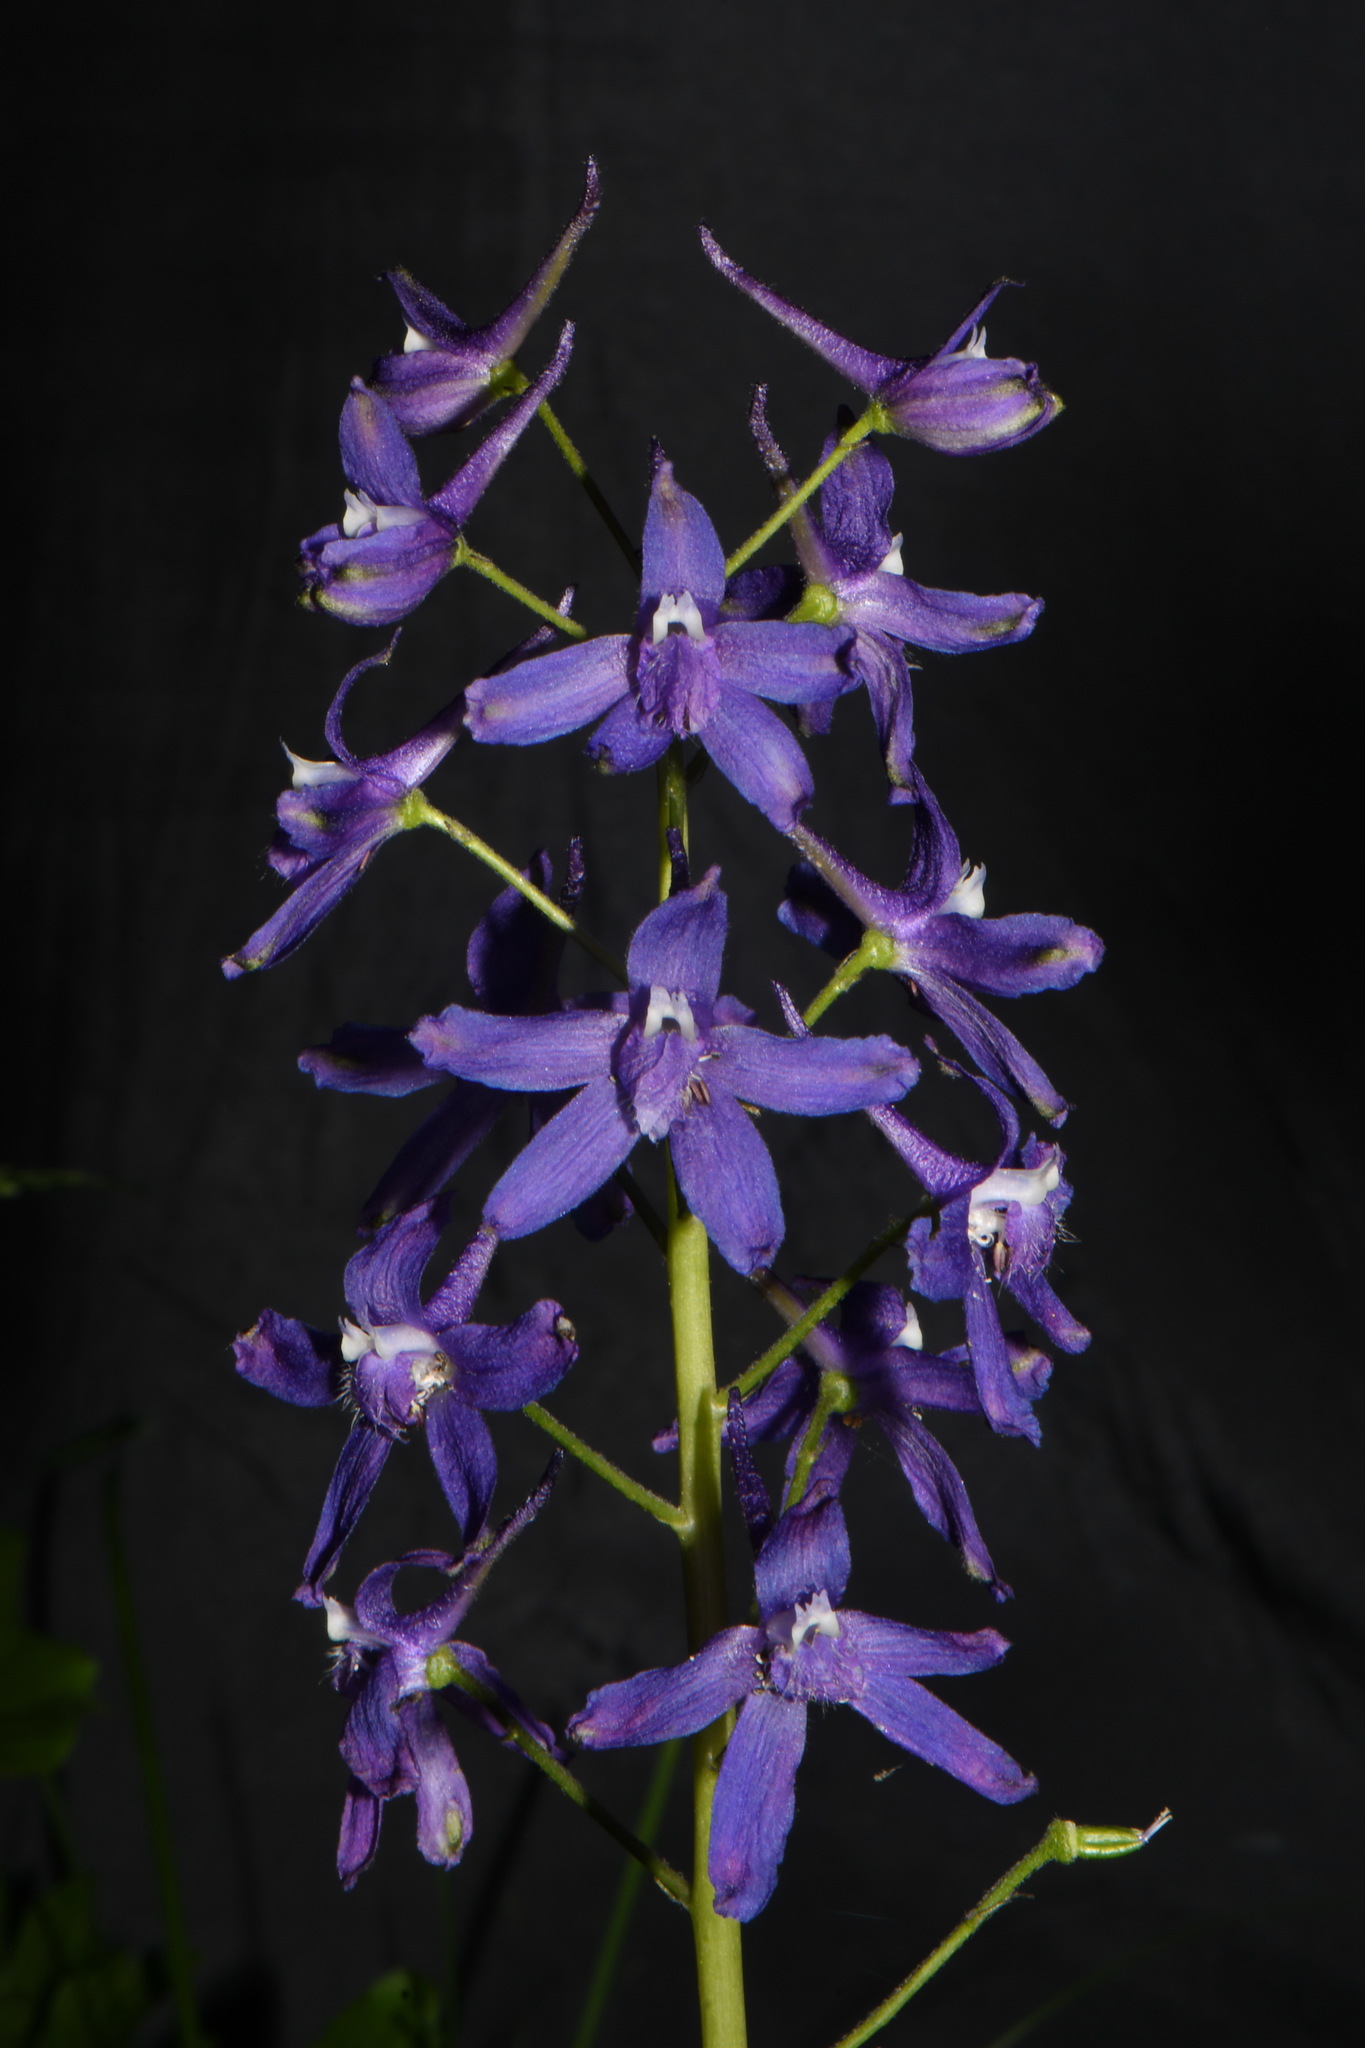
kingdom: Plantae
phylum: Tracheophyta
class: Magnoliopsida
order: Ranunculales
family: Ranunculaceae
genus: Delphinium
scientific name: Delphinium tricorne
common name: Dwarf larkspur
